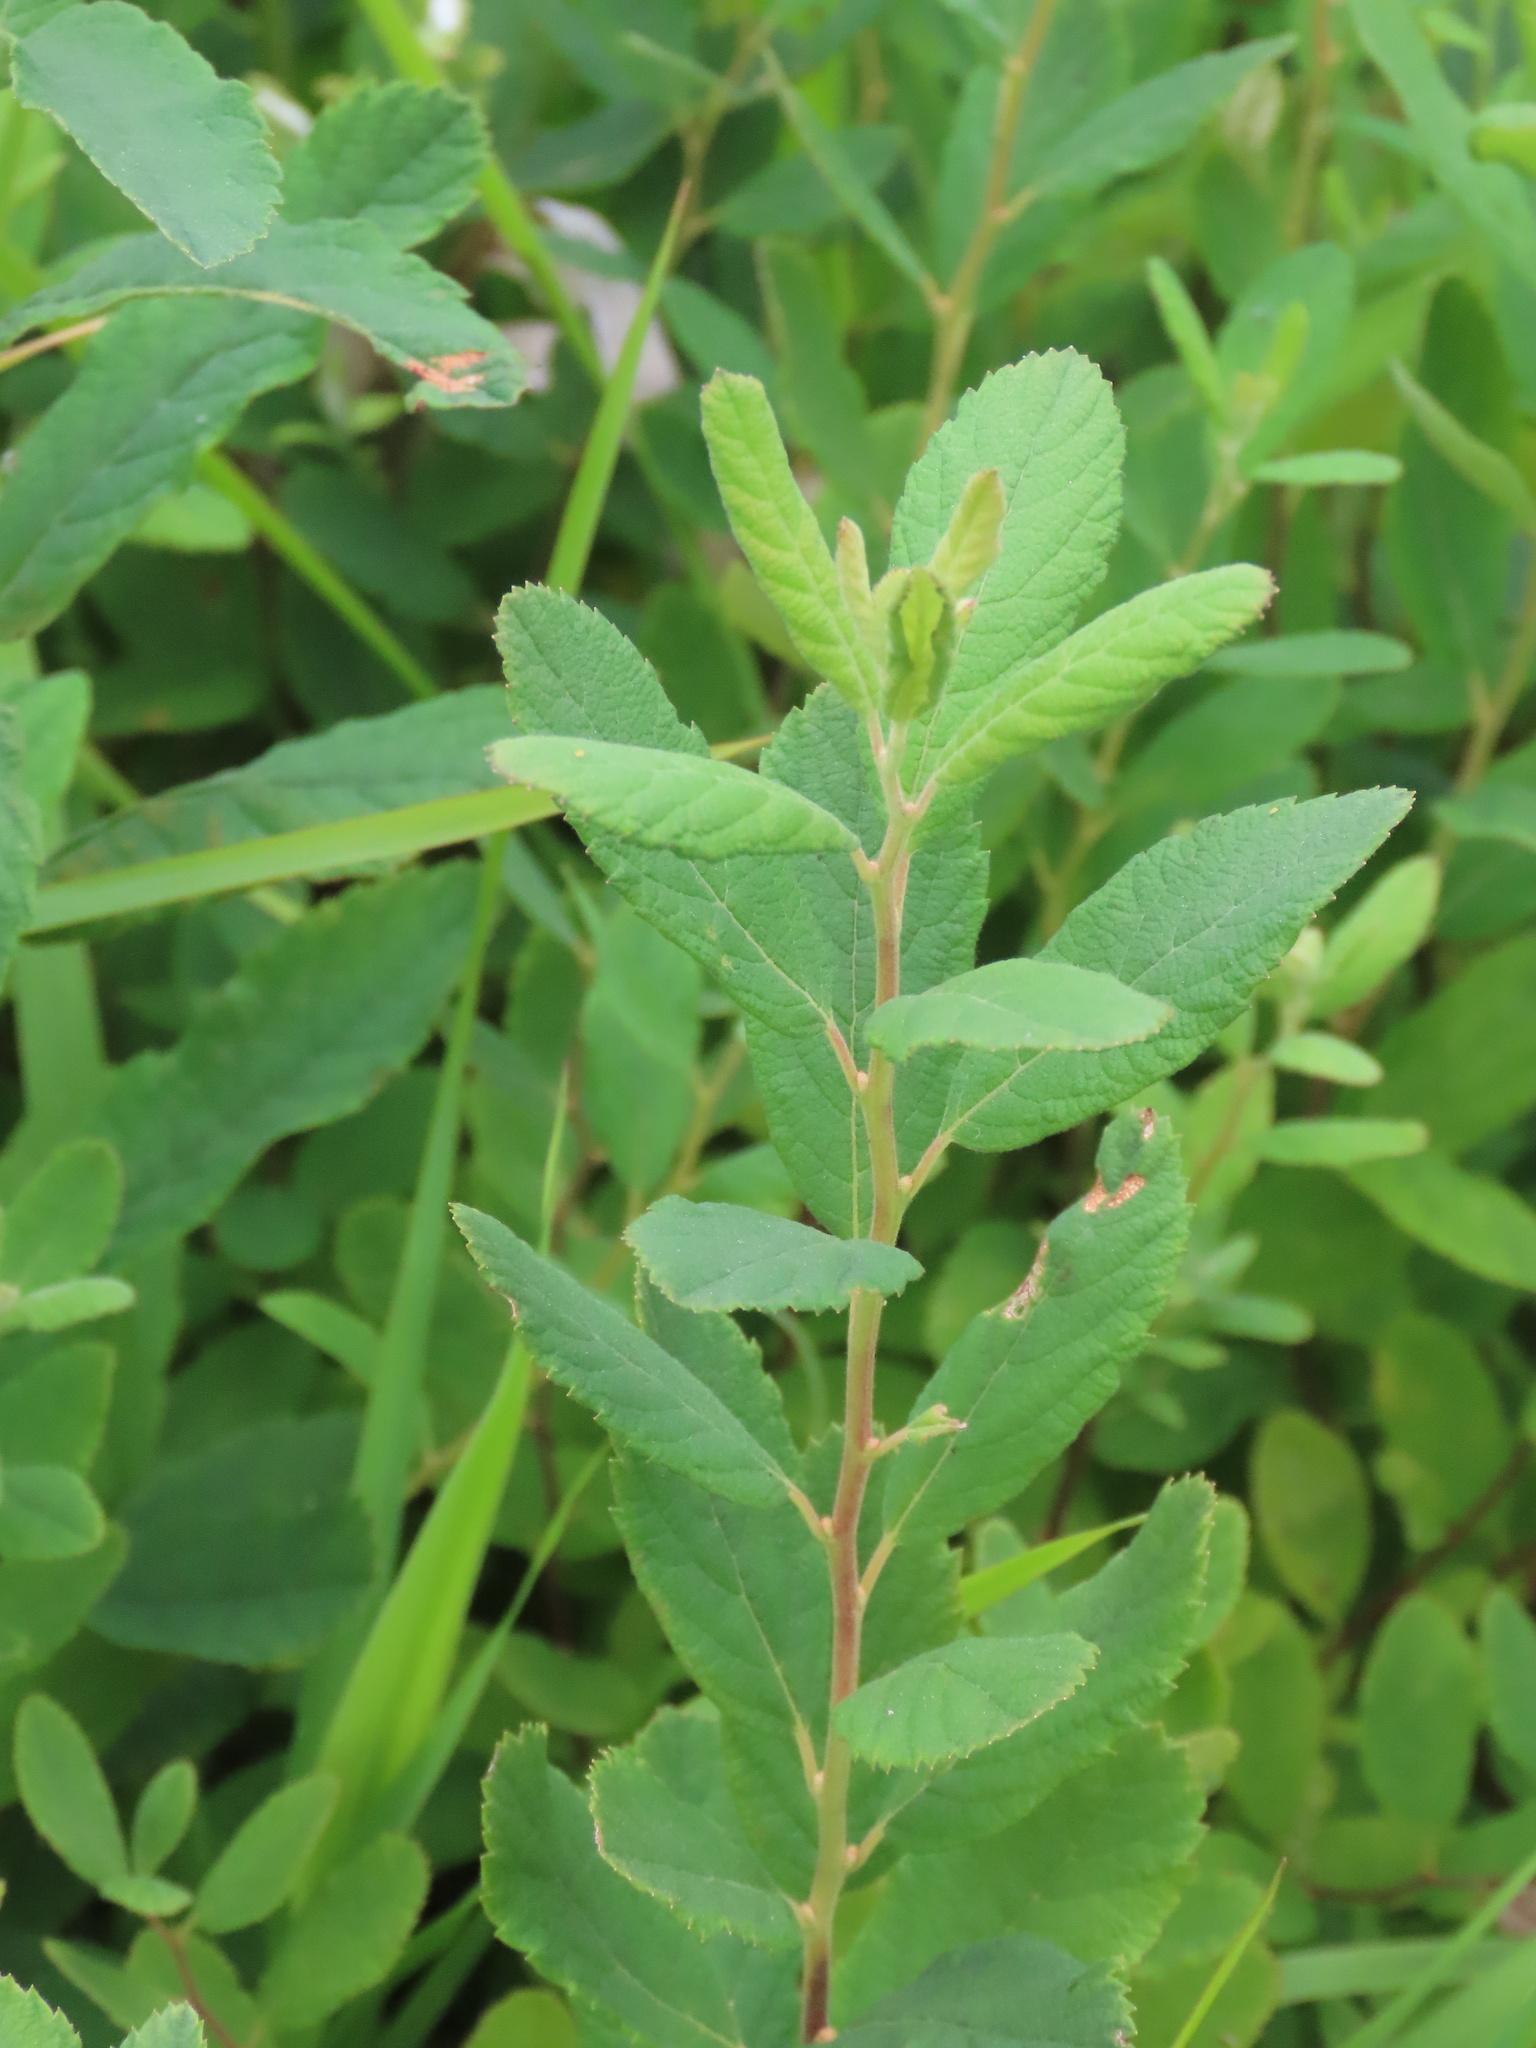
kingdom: Plantae
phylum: Tracheophyta
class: Magnoliopsida
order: Rosales
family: Rosaceae
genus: Spiraea
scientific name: Spiraea douglasii
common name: Steeplebush
